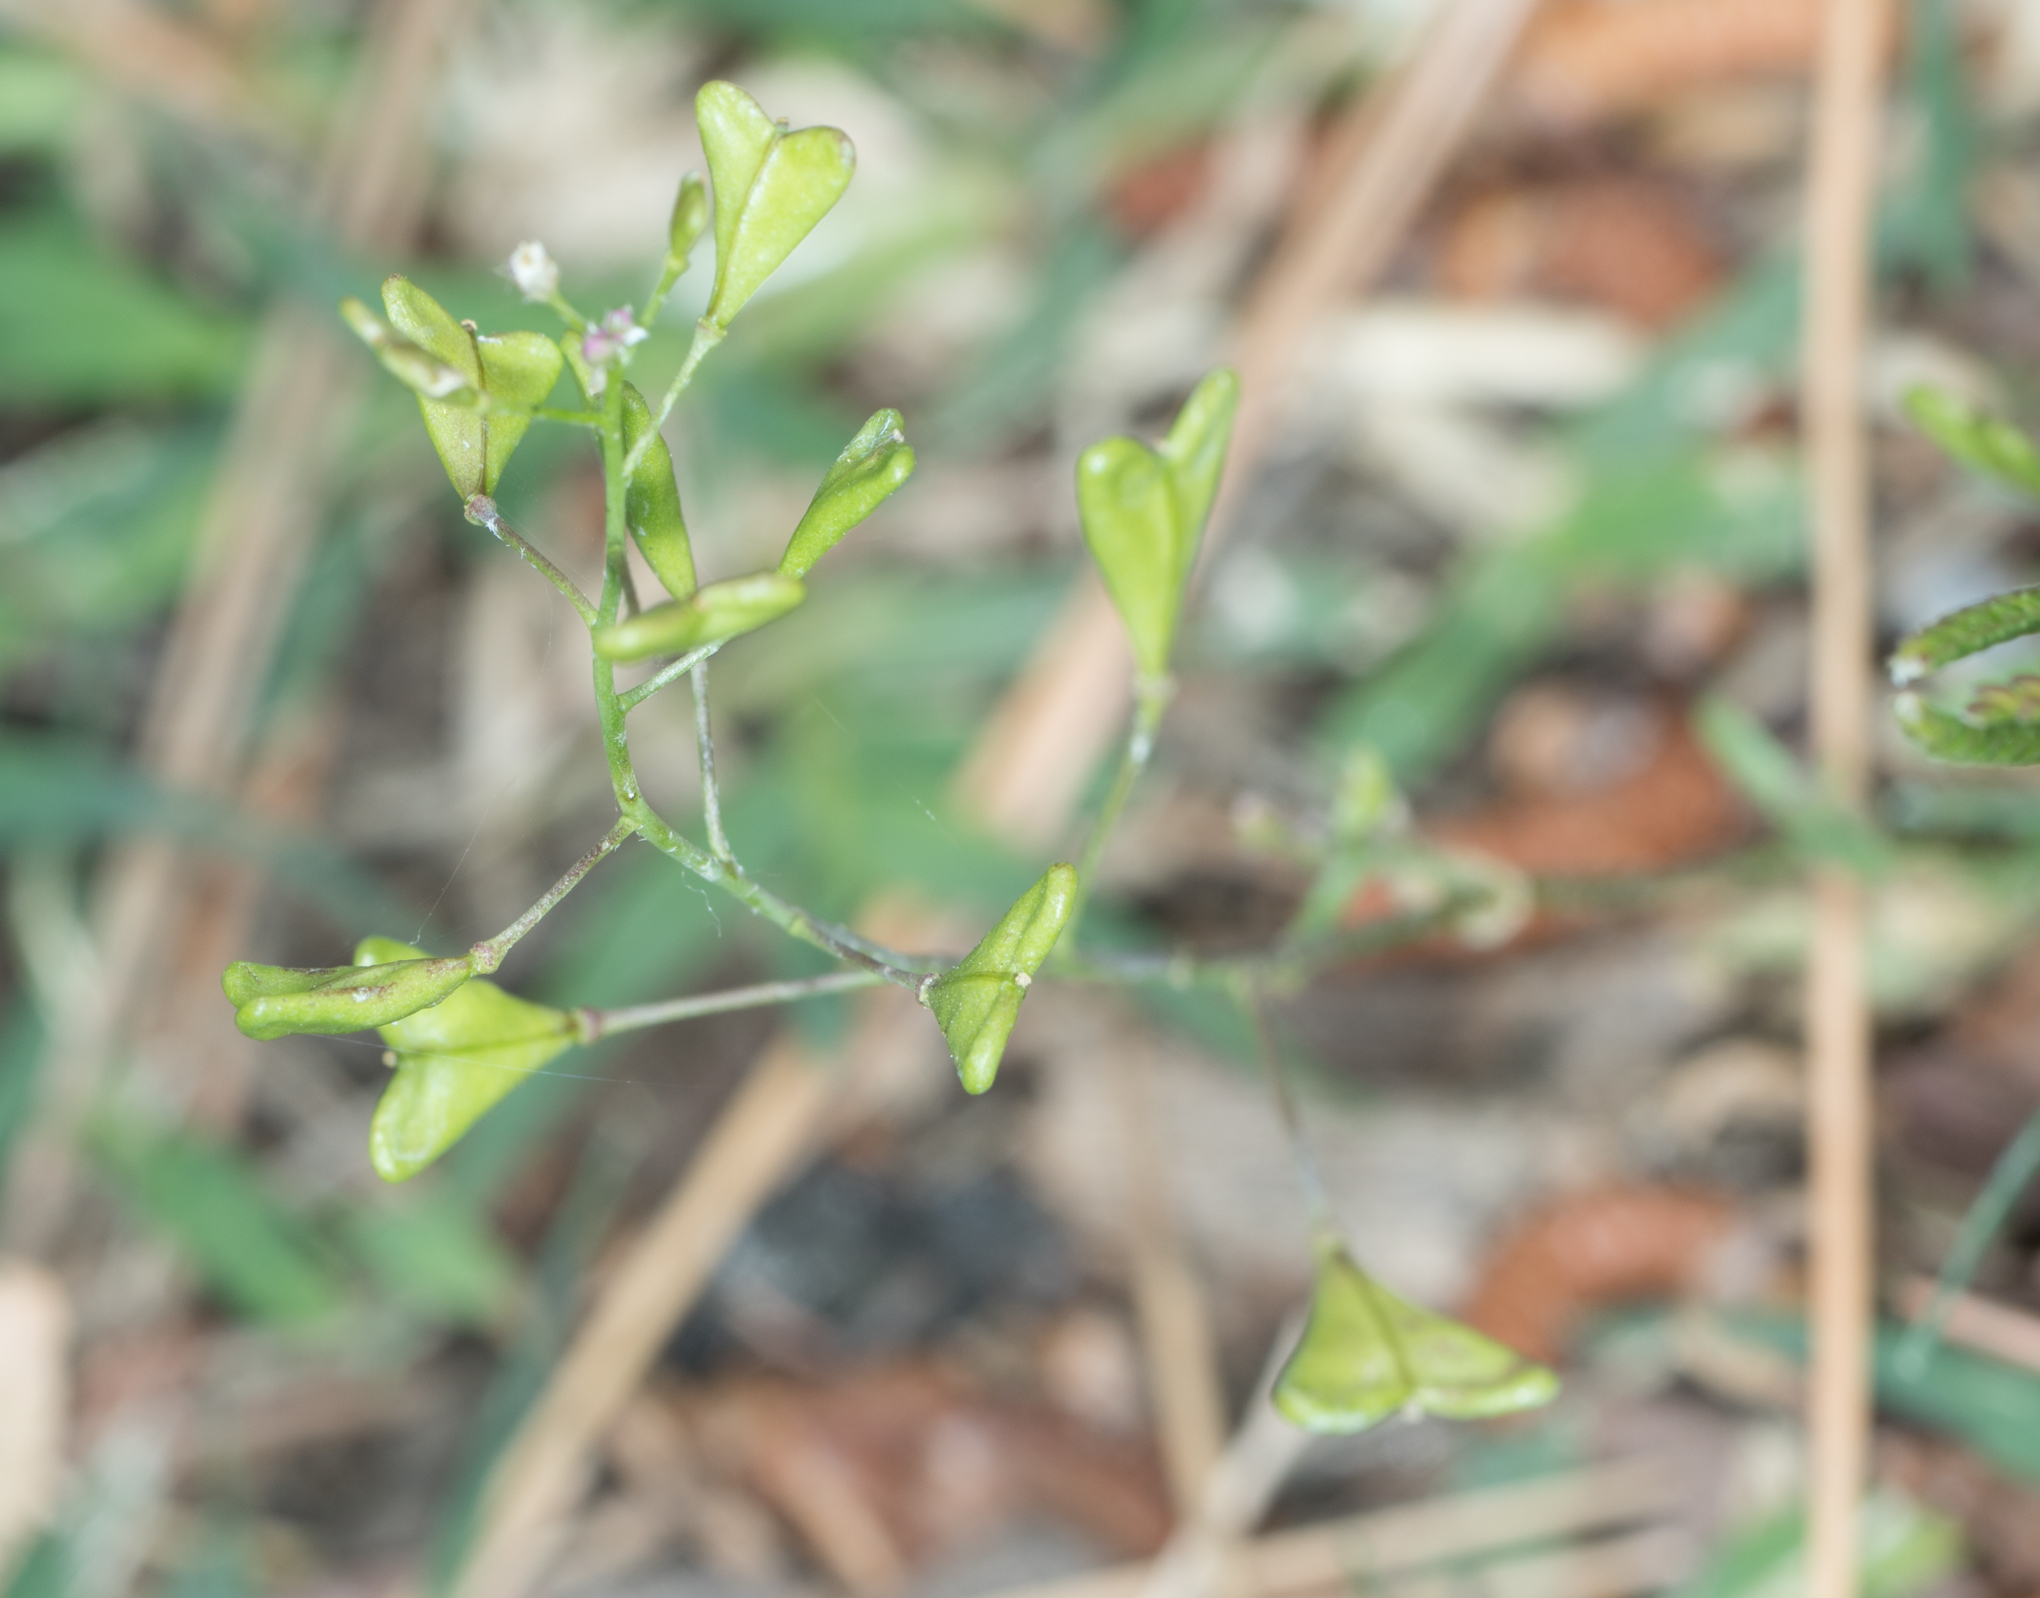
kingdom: Plantae
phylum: Tracheophyta
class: Magnoliopsida
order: Brassicales
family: Brassicaceae
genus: Capsella
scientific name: Capsella bursa-pastoris
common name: Shepherd's purse
